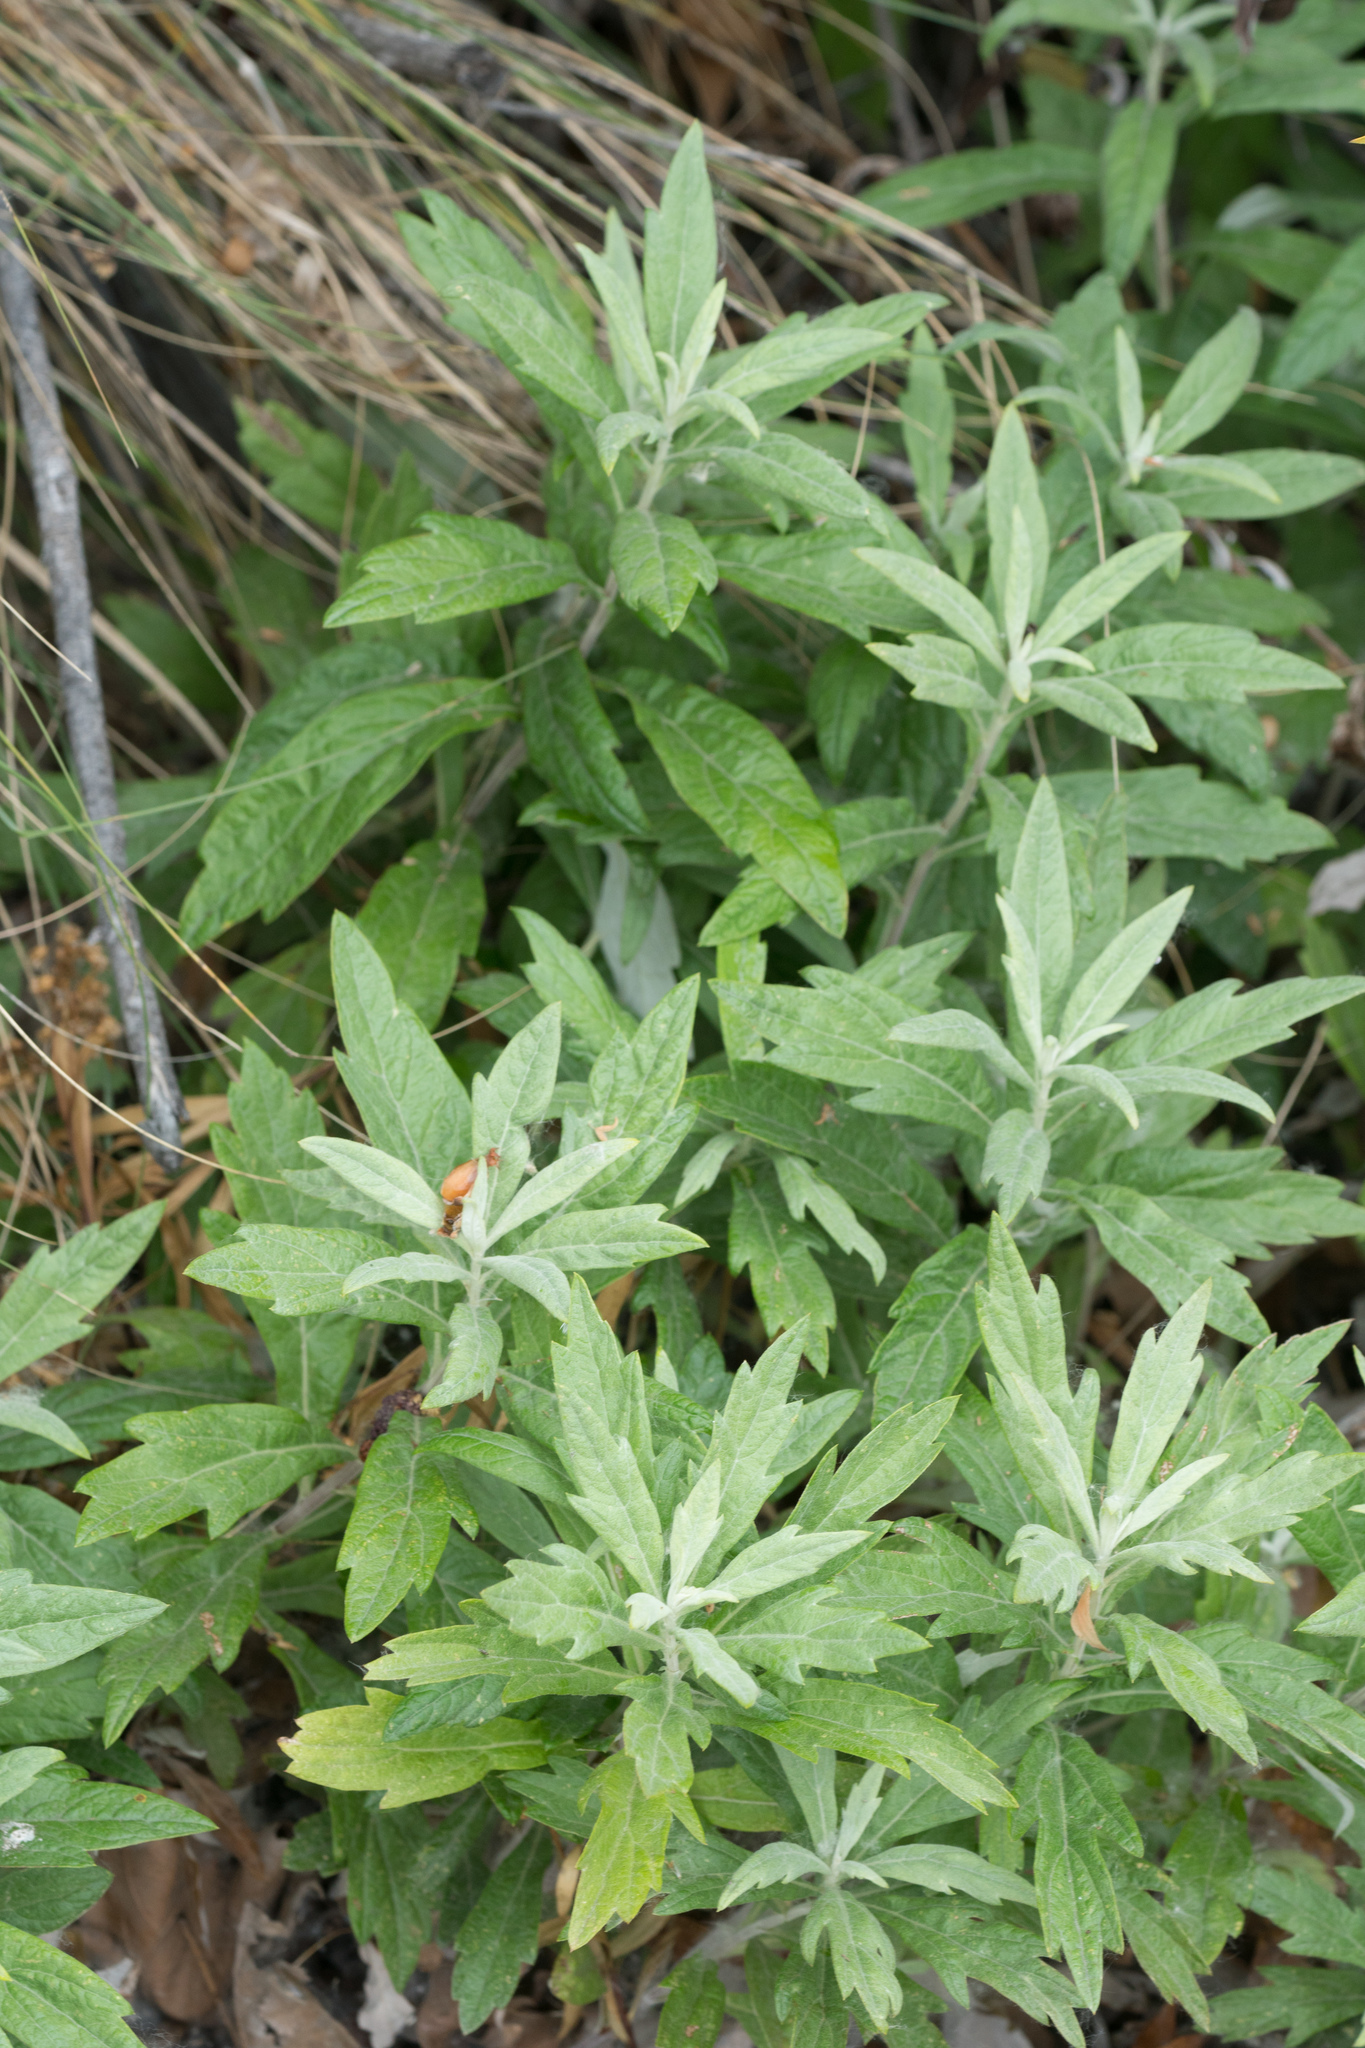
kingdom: Plantae
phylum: Tracheophyta
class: Magnoliopsida
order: Asterales
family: Asteraceae
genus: Artemisia
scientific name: Artemisia douglasiana
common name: Northwest mugwort
